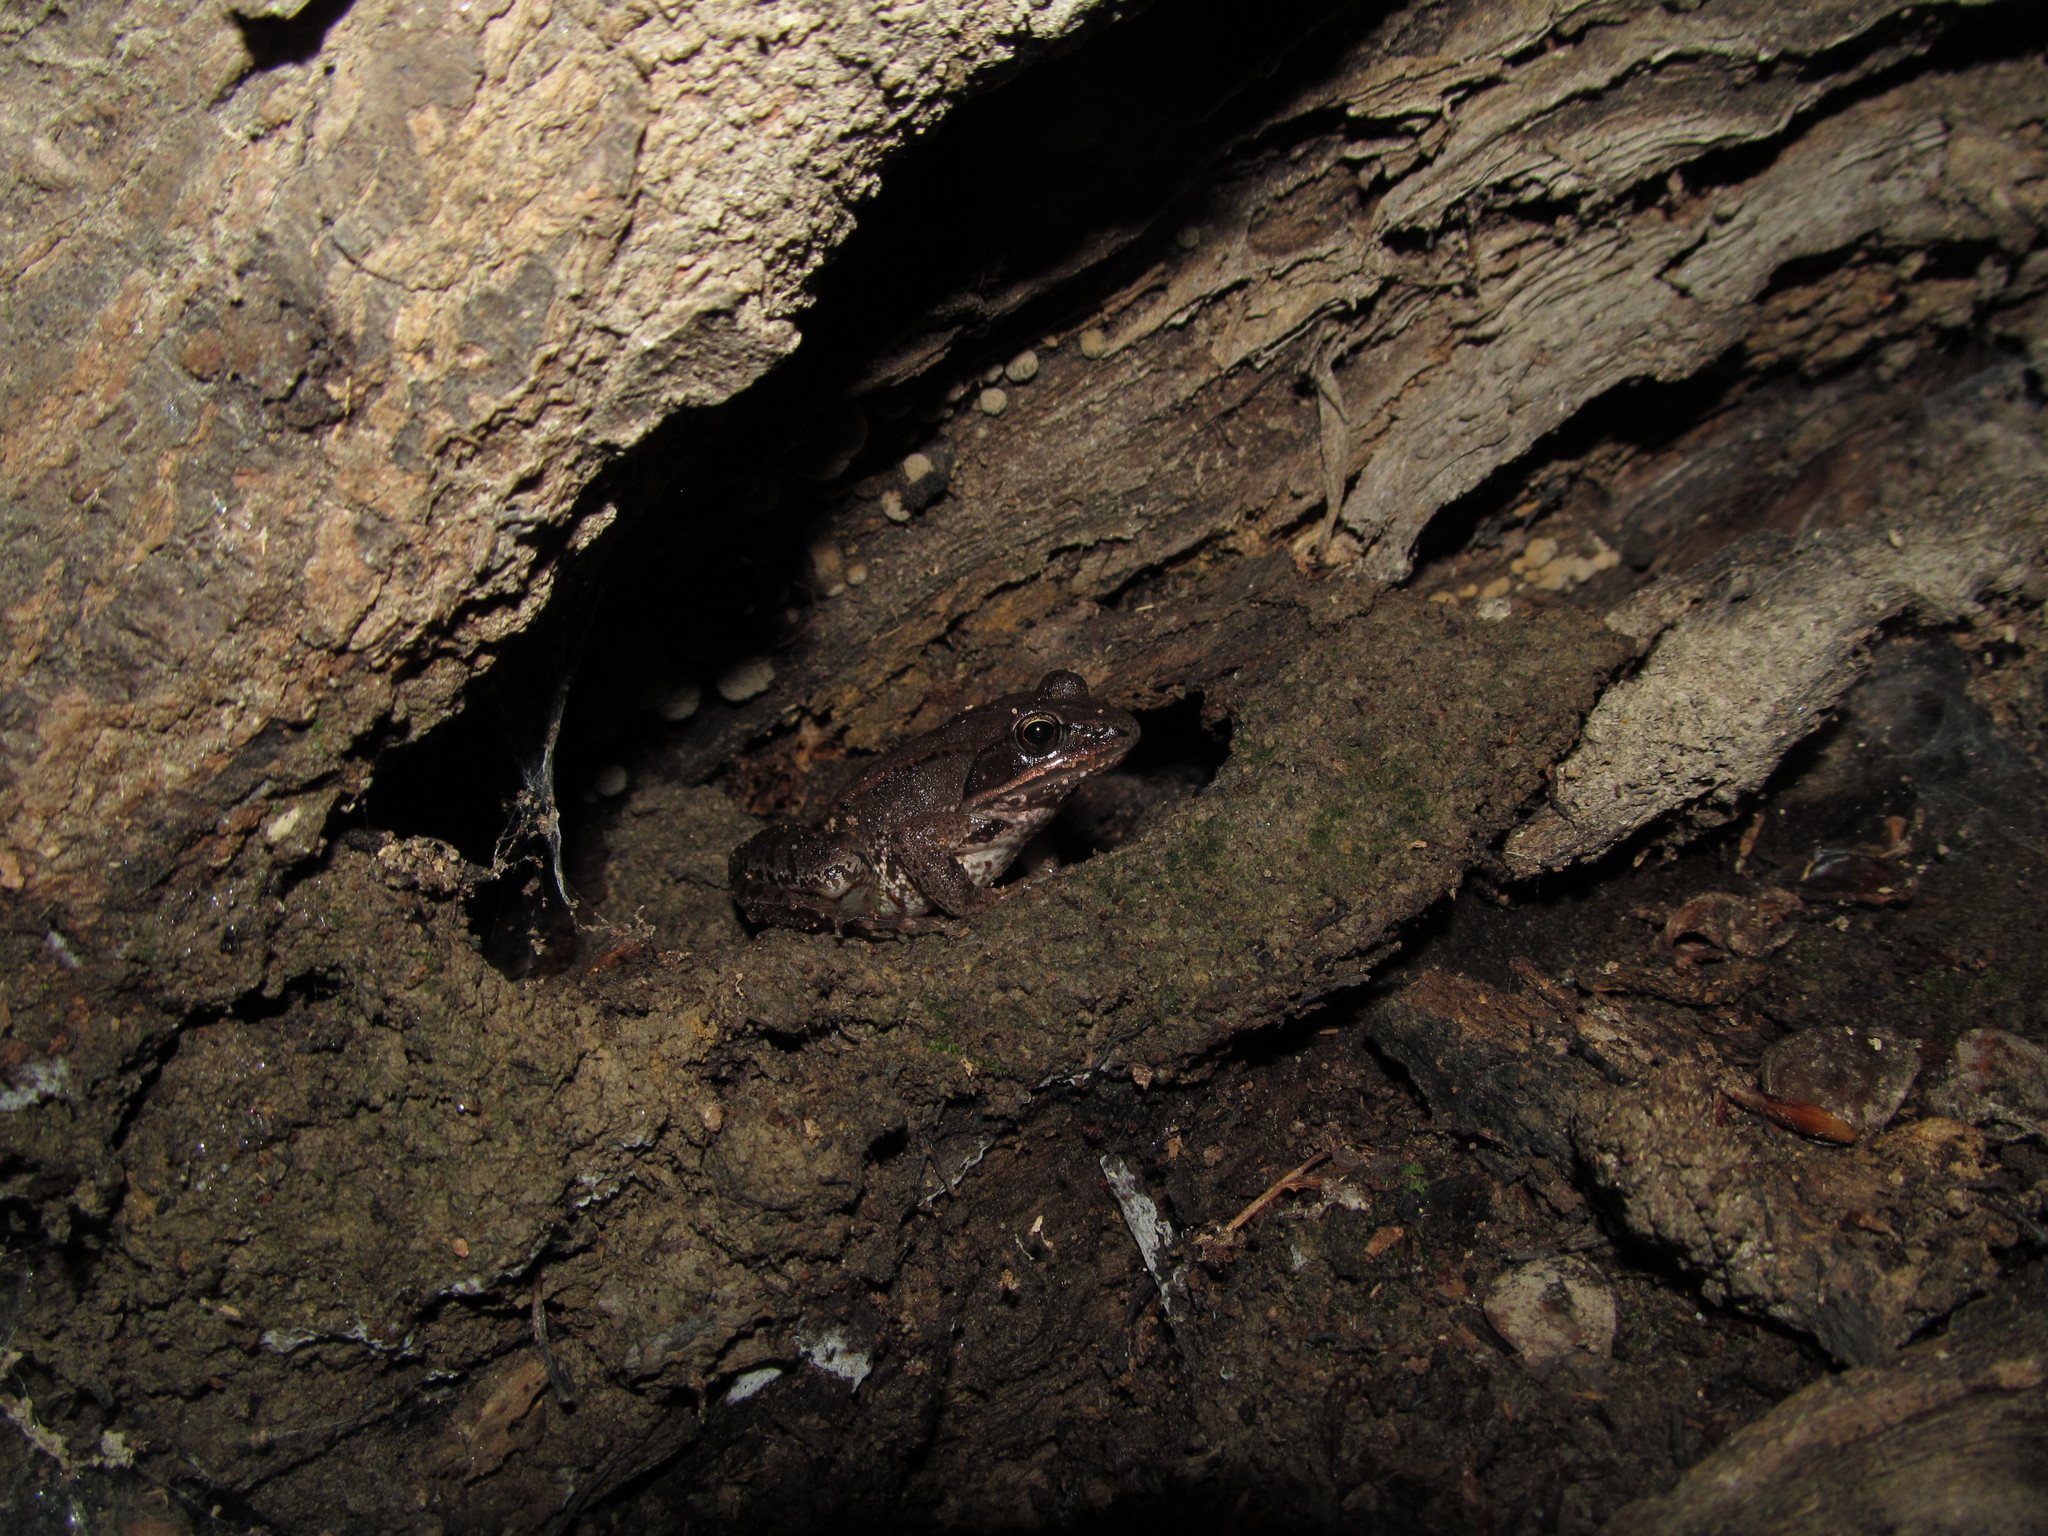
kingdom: Animalia
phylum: Chordata
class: Amphibia
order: Anura
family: Ranidae
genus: Lithobates
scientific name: Lithobates sylvaticus
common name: Wood frog
